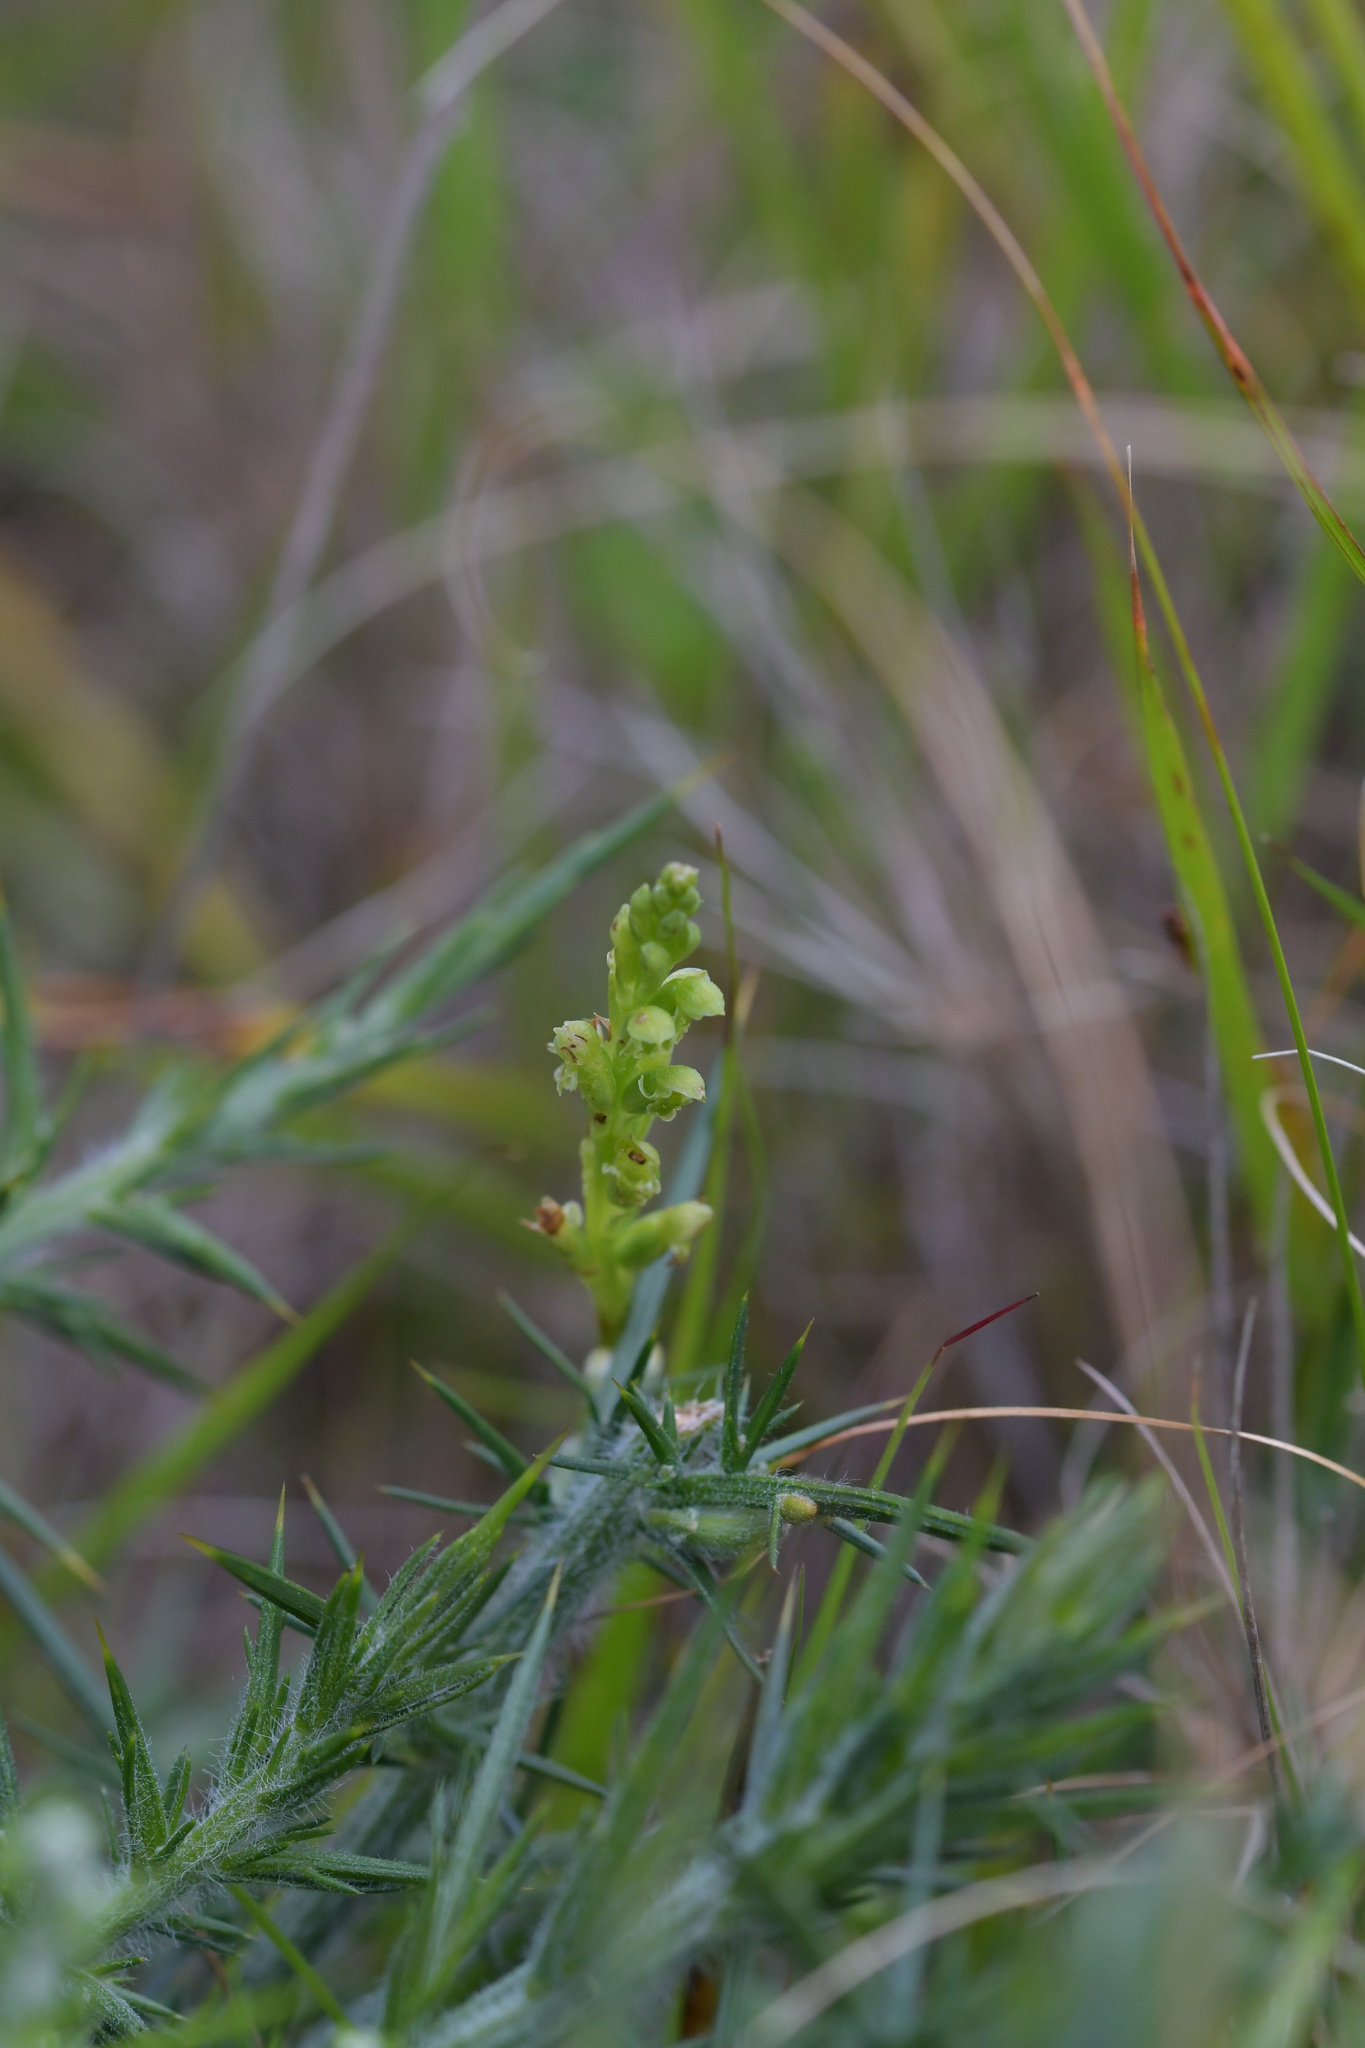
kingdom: Plantae
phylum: Tracheophyta
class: Liliopsida
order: Asparagales
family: Orchidaceae
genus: Microtis
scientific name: Microtis unifolia
